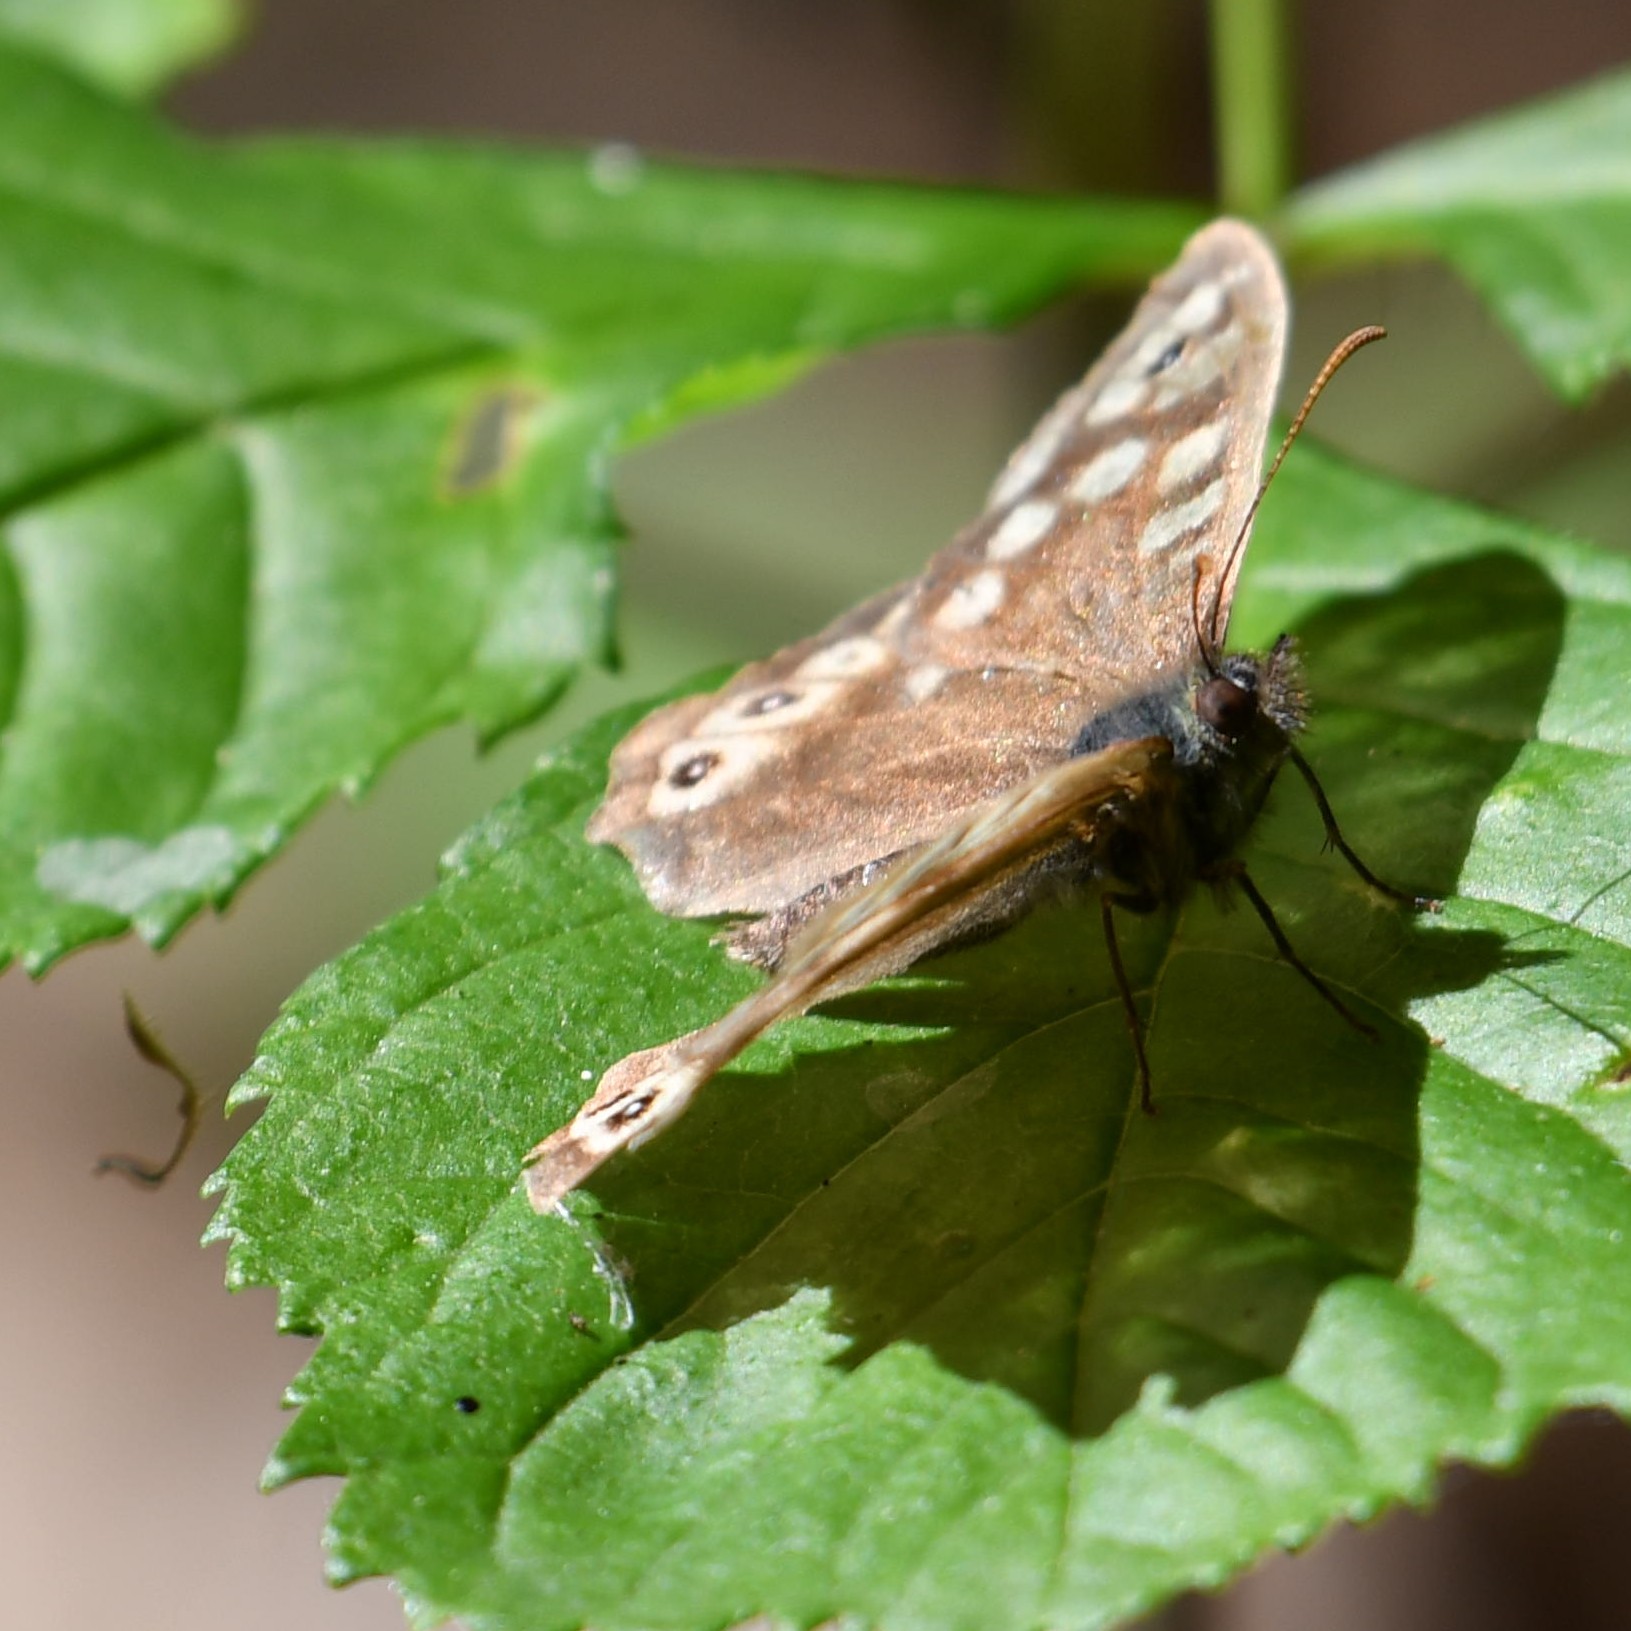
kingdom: Animalia
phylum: Arthropoda
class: Insecta
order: Lepidoptera
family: Nymphalidae
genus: Pararge
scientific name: Pararge aegeria
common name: Speckled wood
